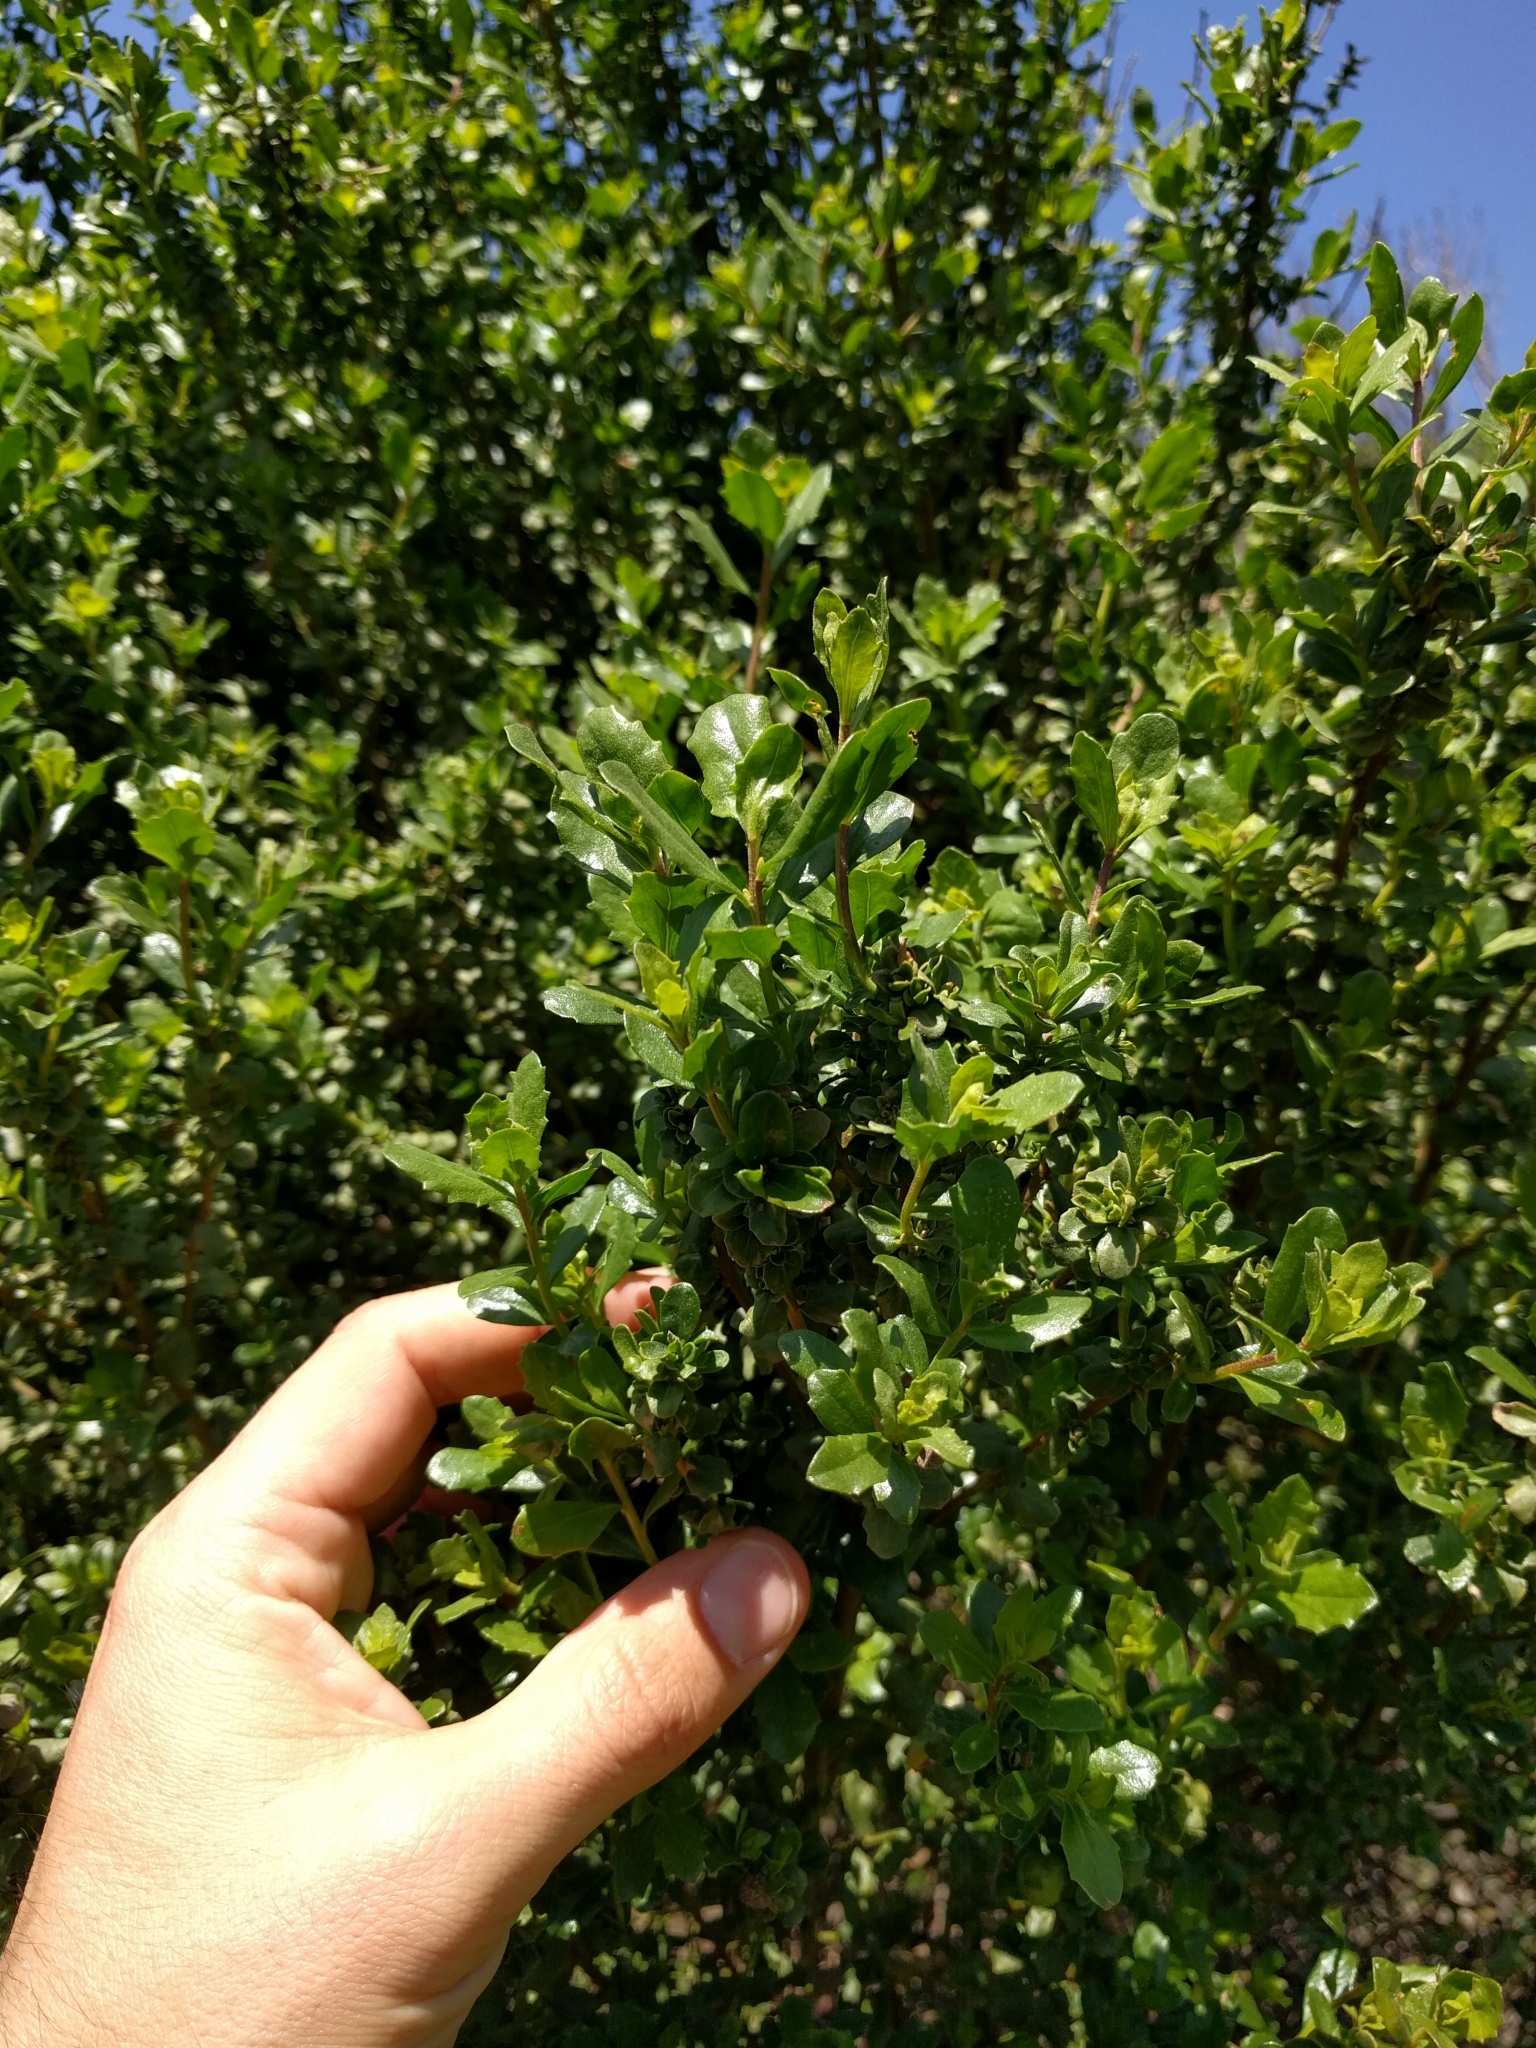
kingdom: Plantae
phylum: Tracheophyta
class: Magnoliopsida
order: Asterales
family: Asteraceae
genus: Baccharis
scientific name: Baccharis pilularis
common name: Coyotebrush
